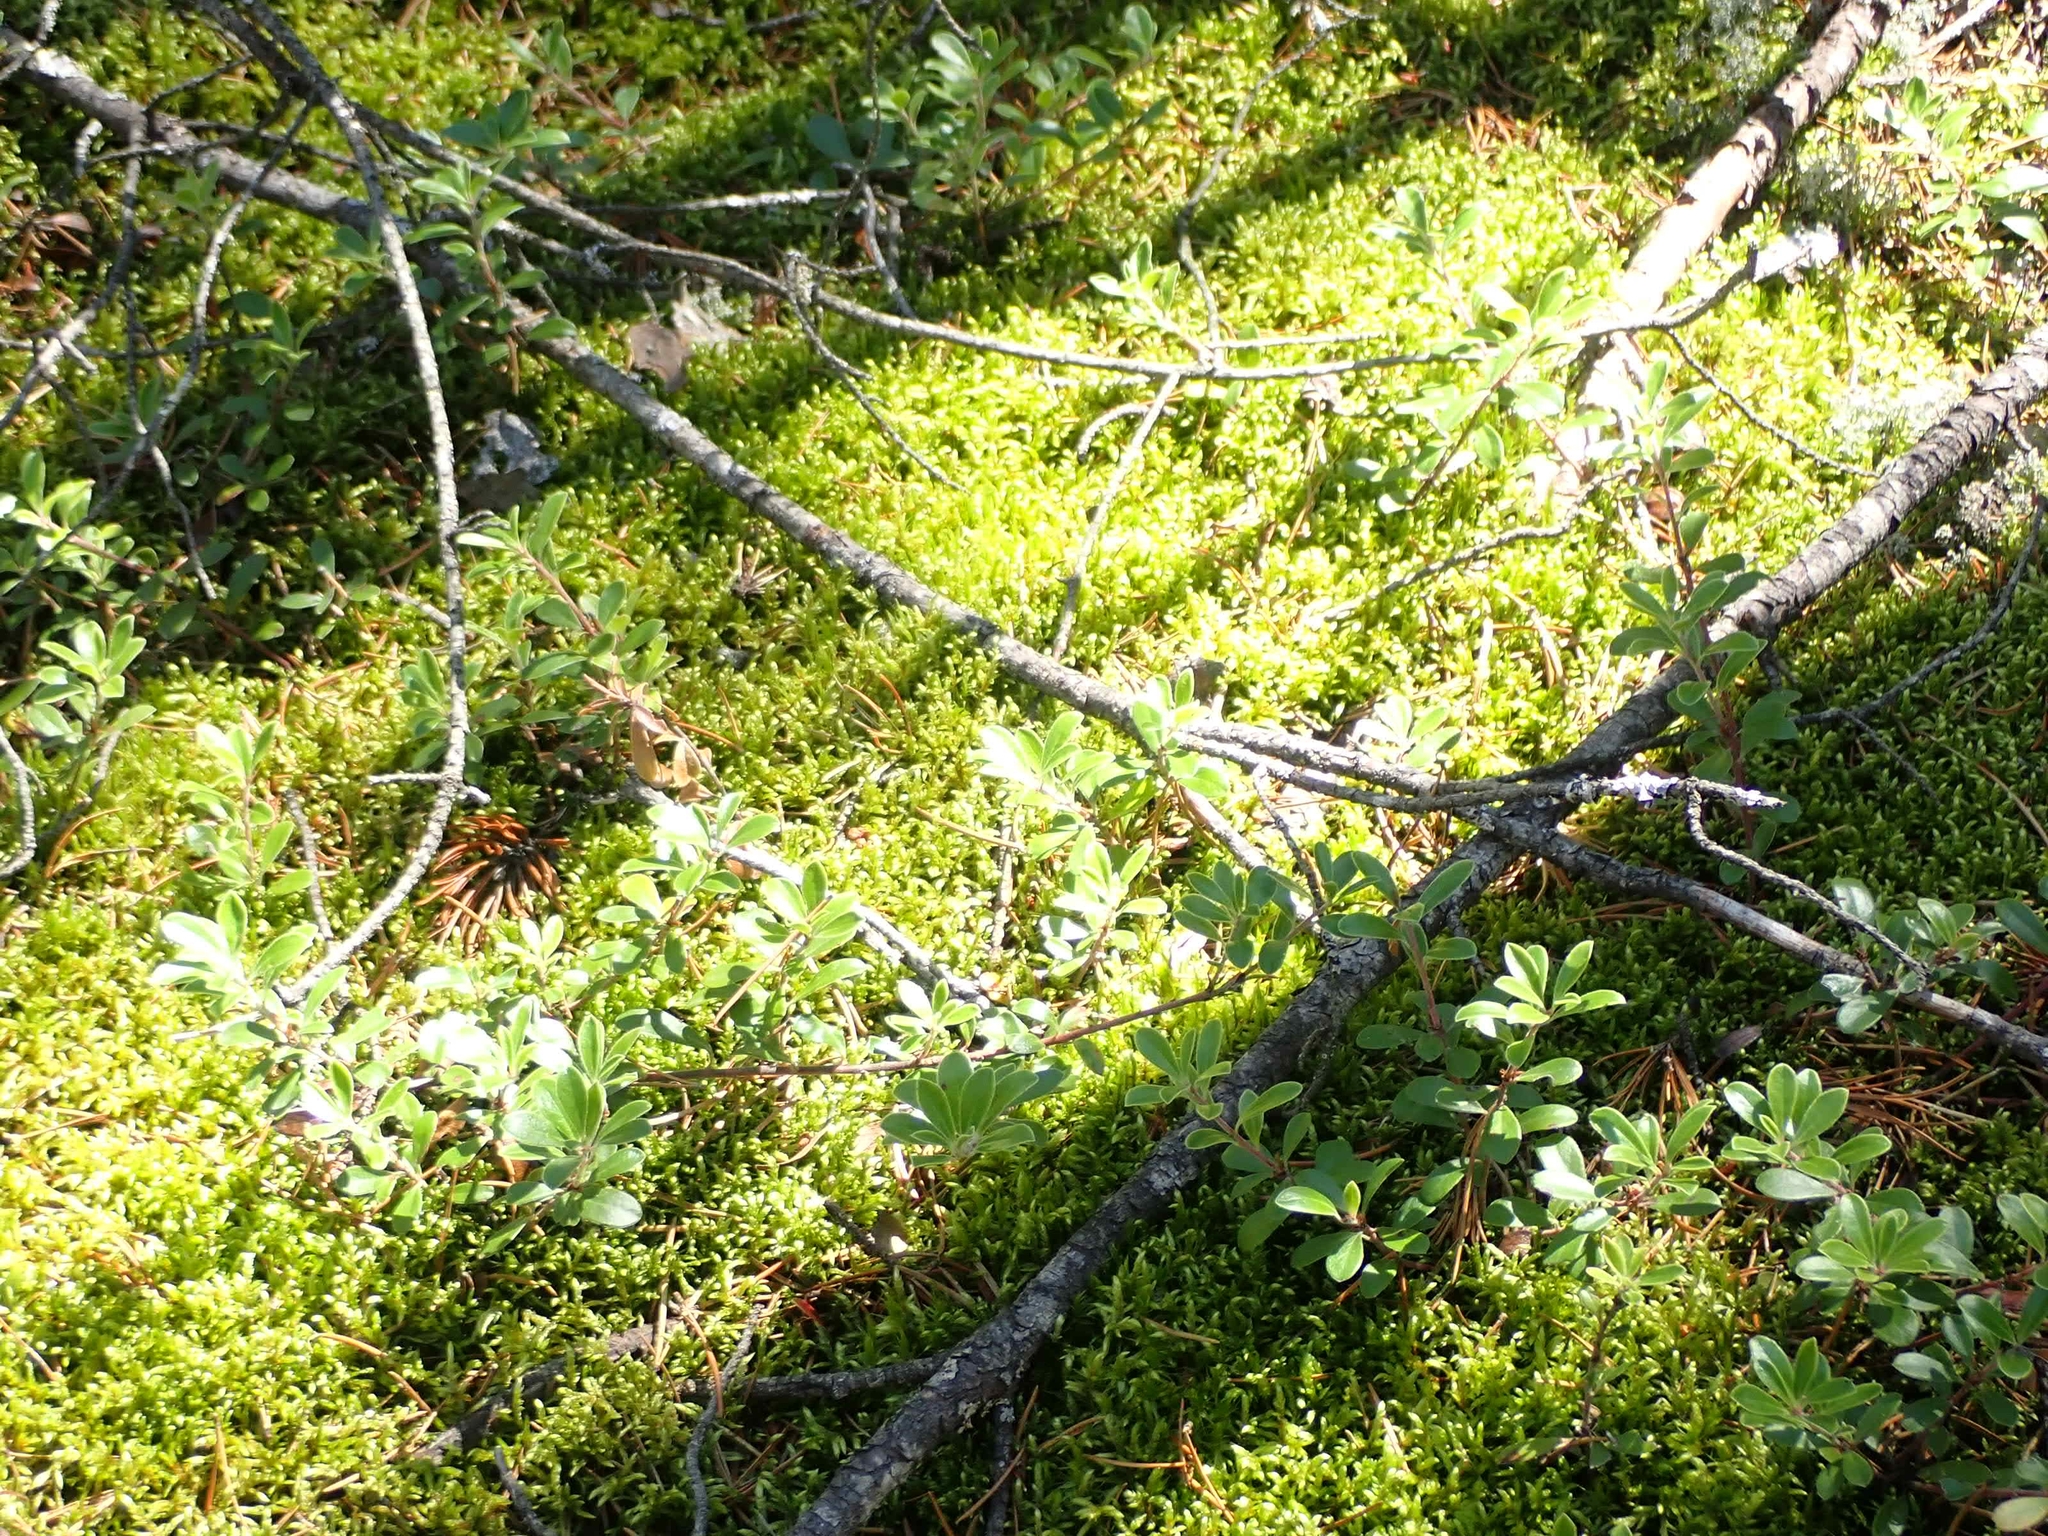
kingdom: Plantae
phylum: Bryophyta
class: Bryopsida
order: Hypnales
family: Hylocomiaceae
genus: Pleurozium
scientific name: Pleurozium schreberi
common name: Red-stemmed feather moss
